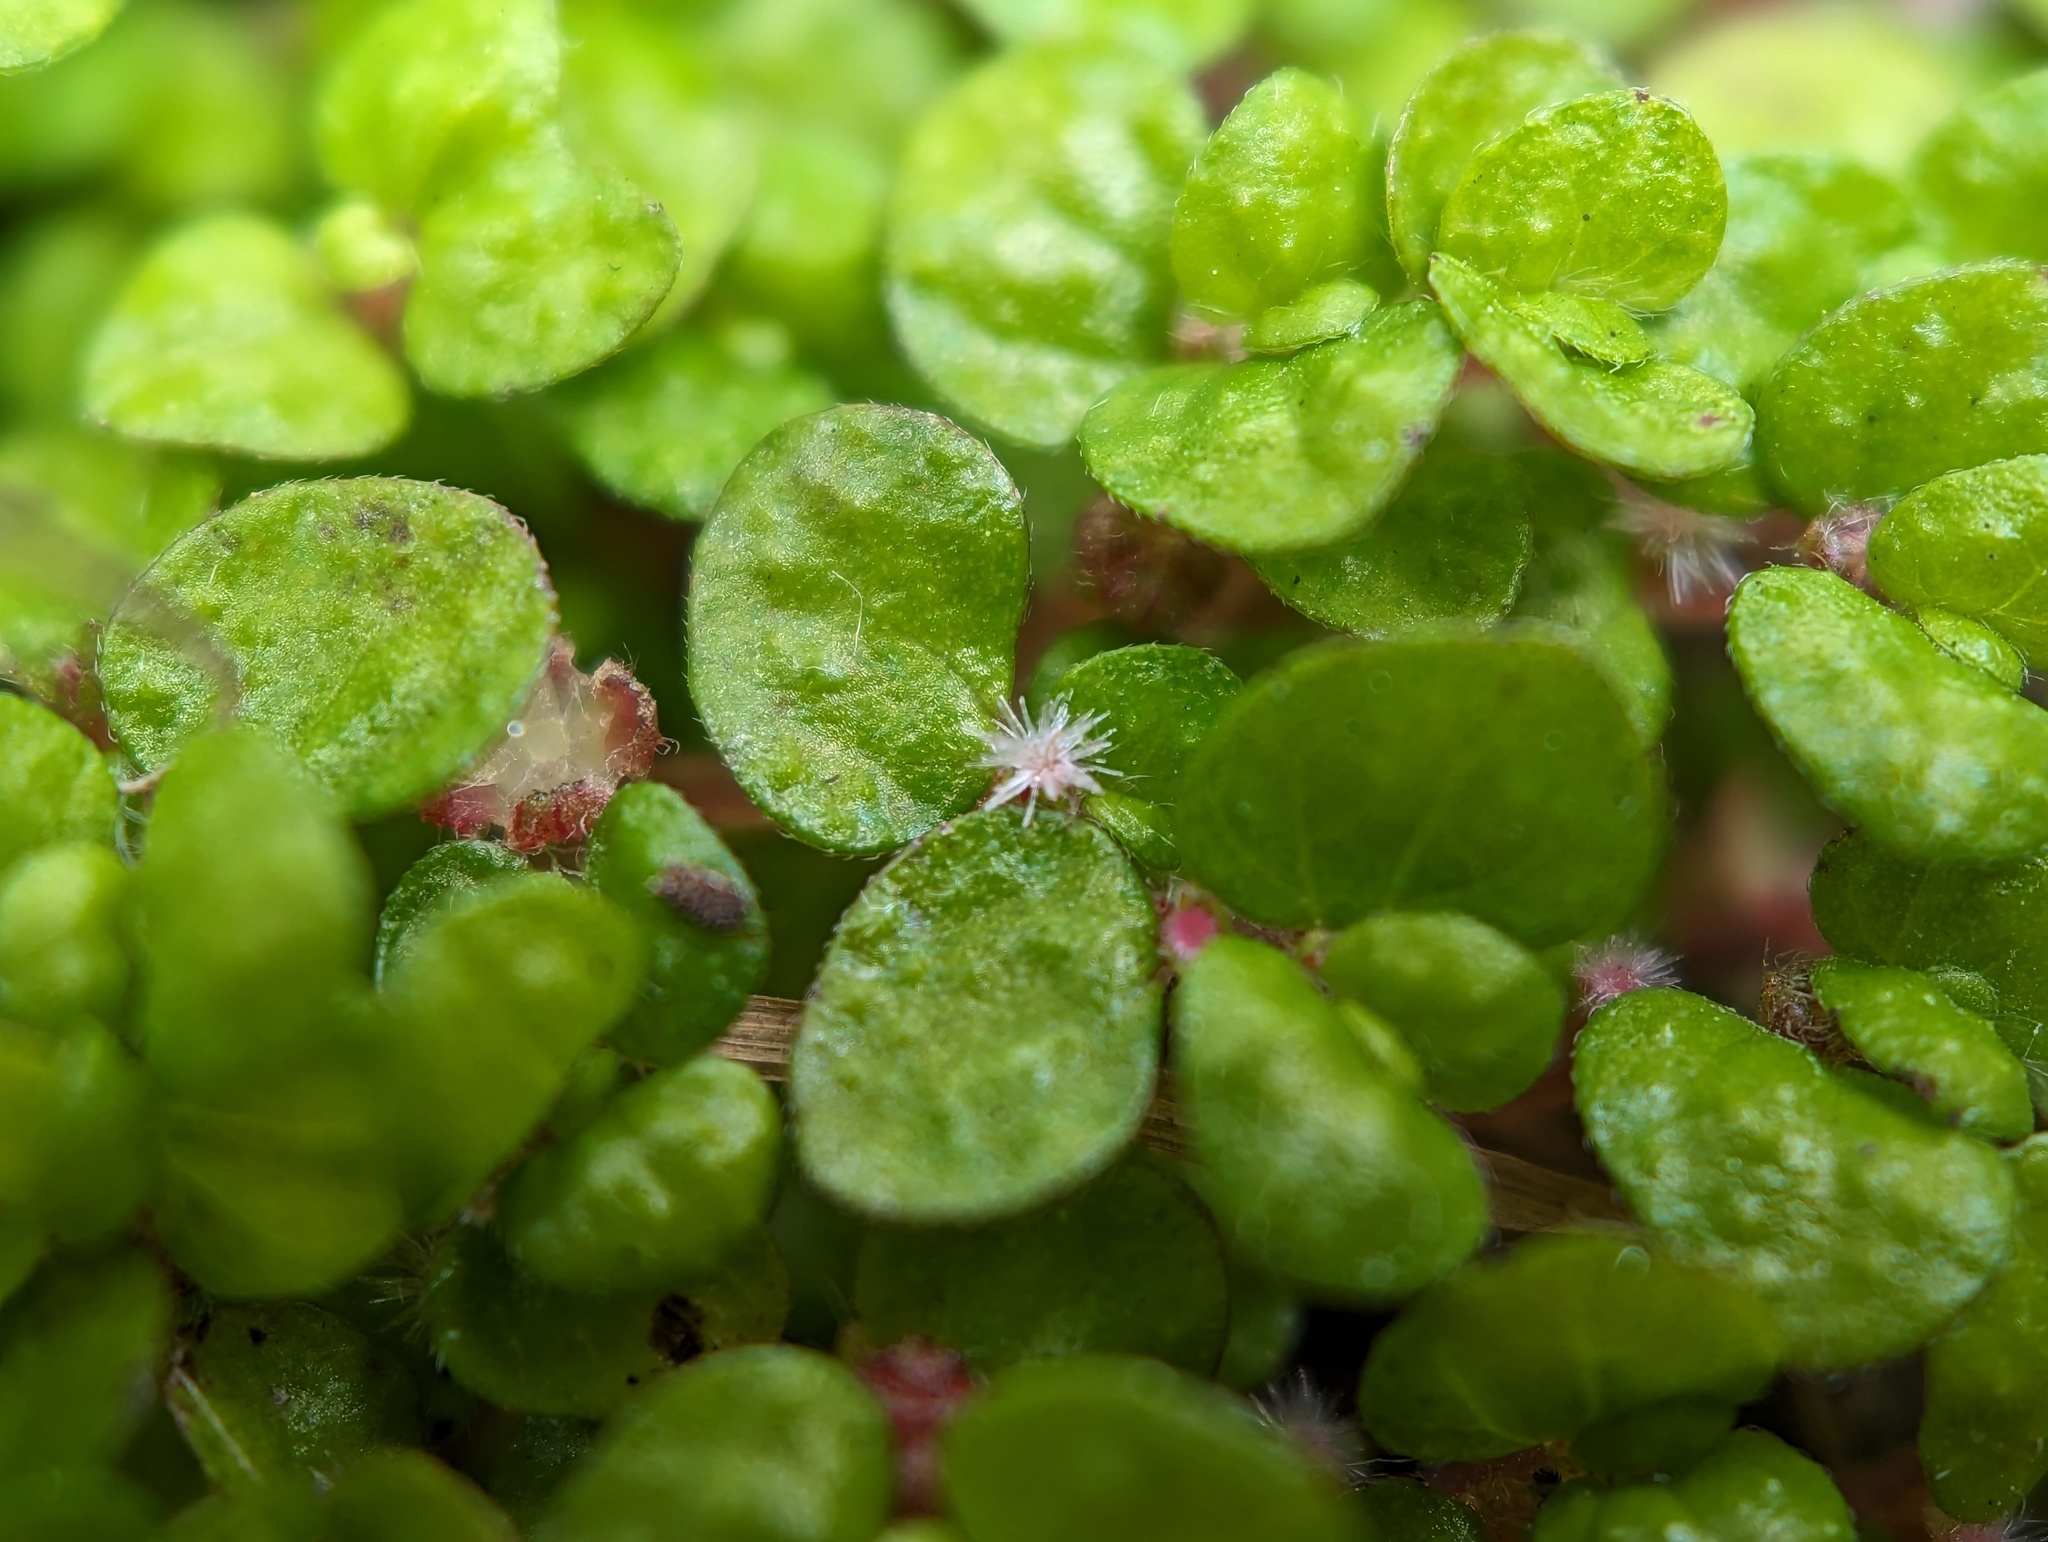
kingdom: Plantae
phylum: Tracheophyta
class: Magnoliopsida
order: Rosales
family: Urticaceae
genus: Soleirolia
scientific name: Soleirolia soleirolii
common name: Mind-your-own-business
